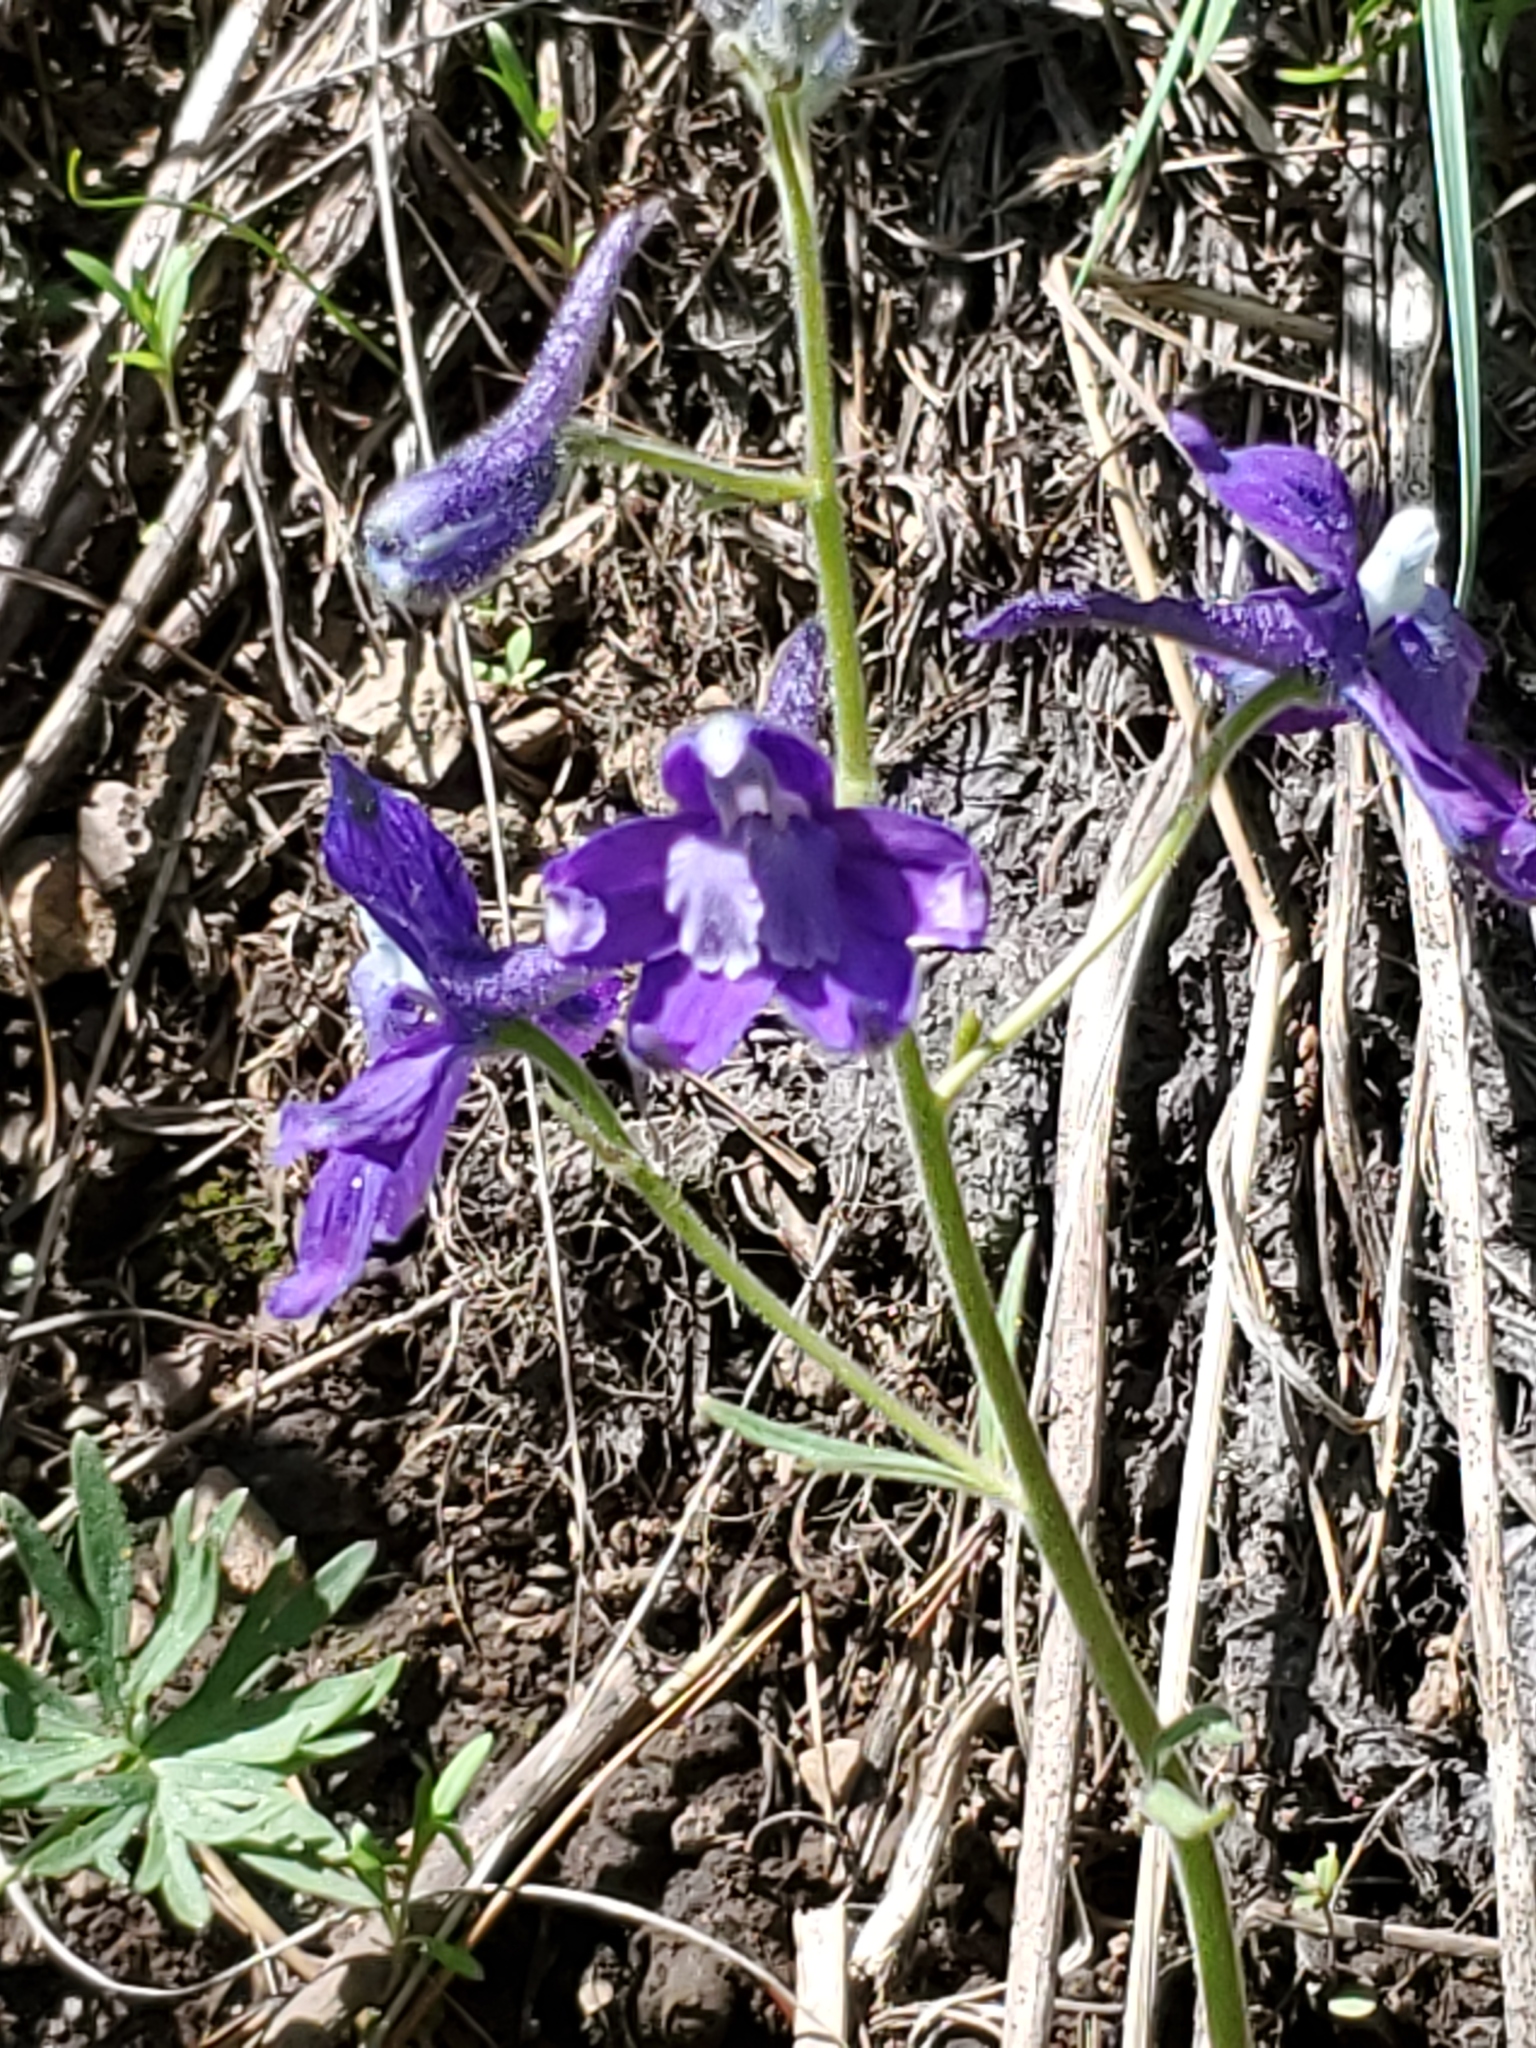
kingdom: Plantae
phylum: Tracheophyta
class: Magnoliopsida
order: Ranunculales
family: Ranunculaceae
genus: Delphinium
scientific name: Delphinium bicolor
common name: Low larkspur
